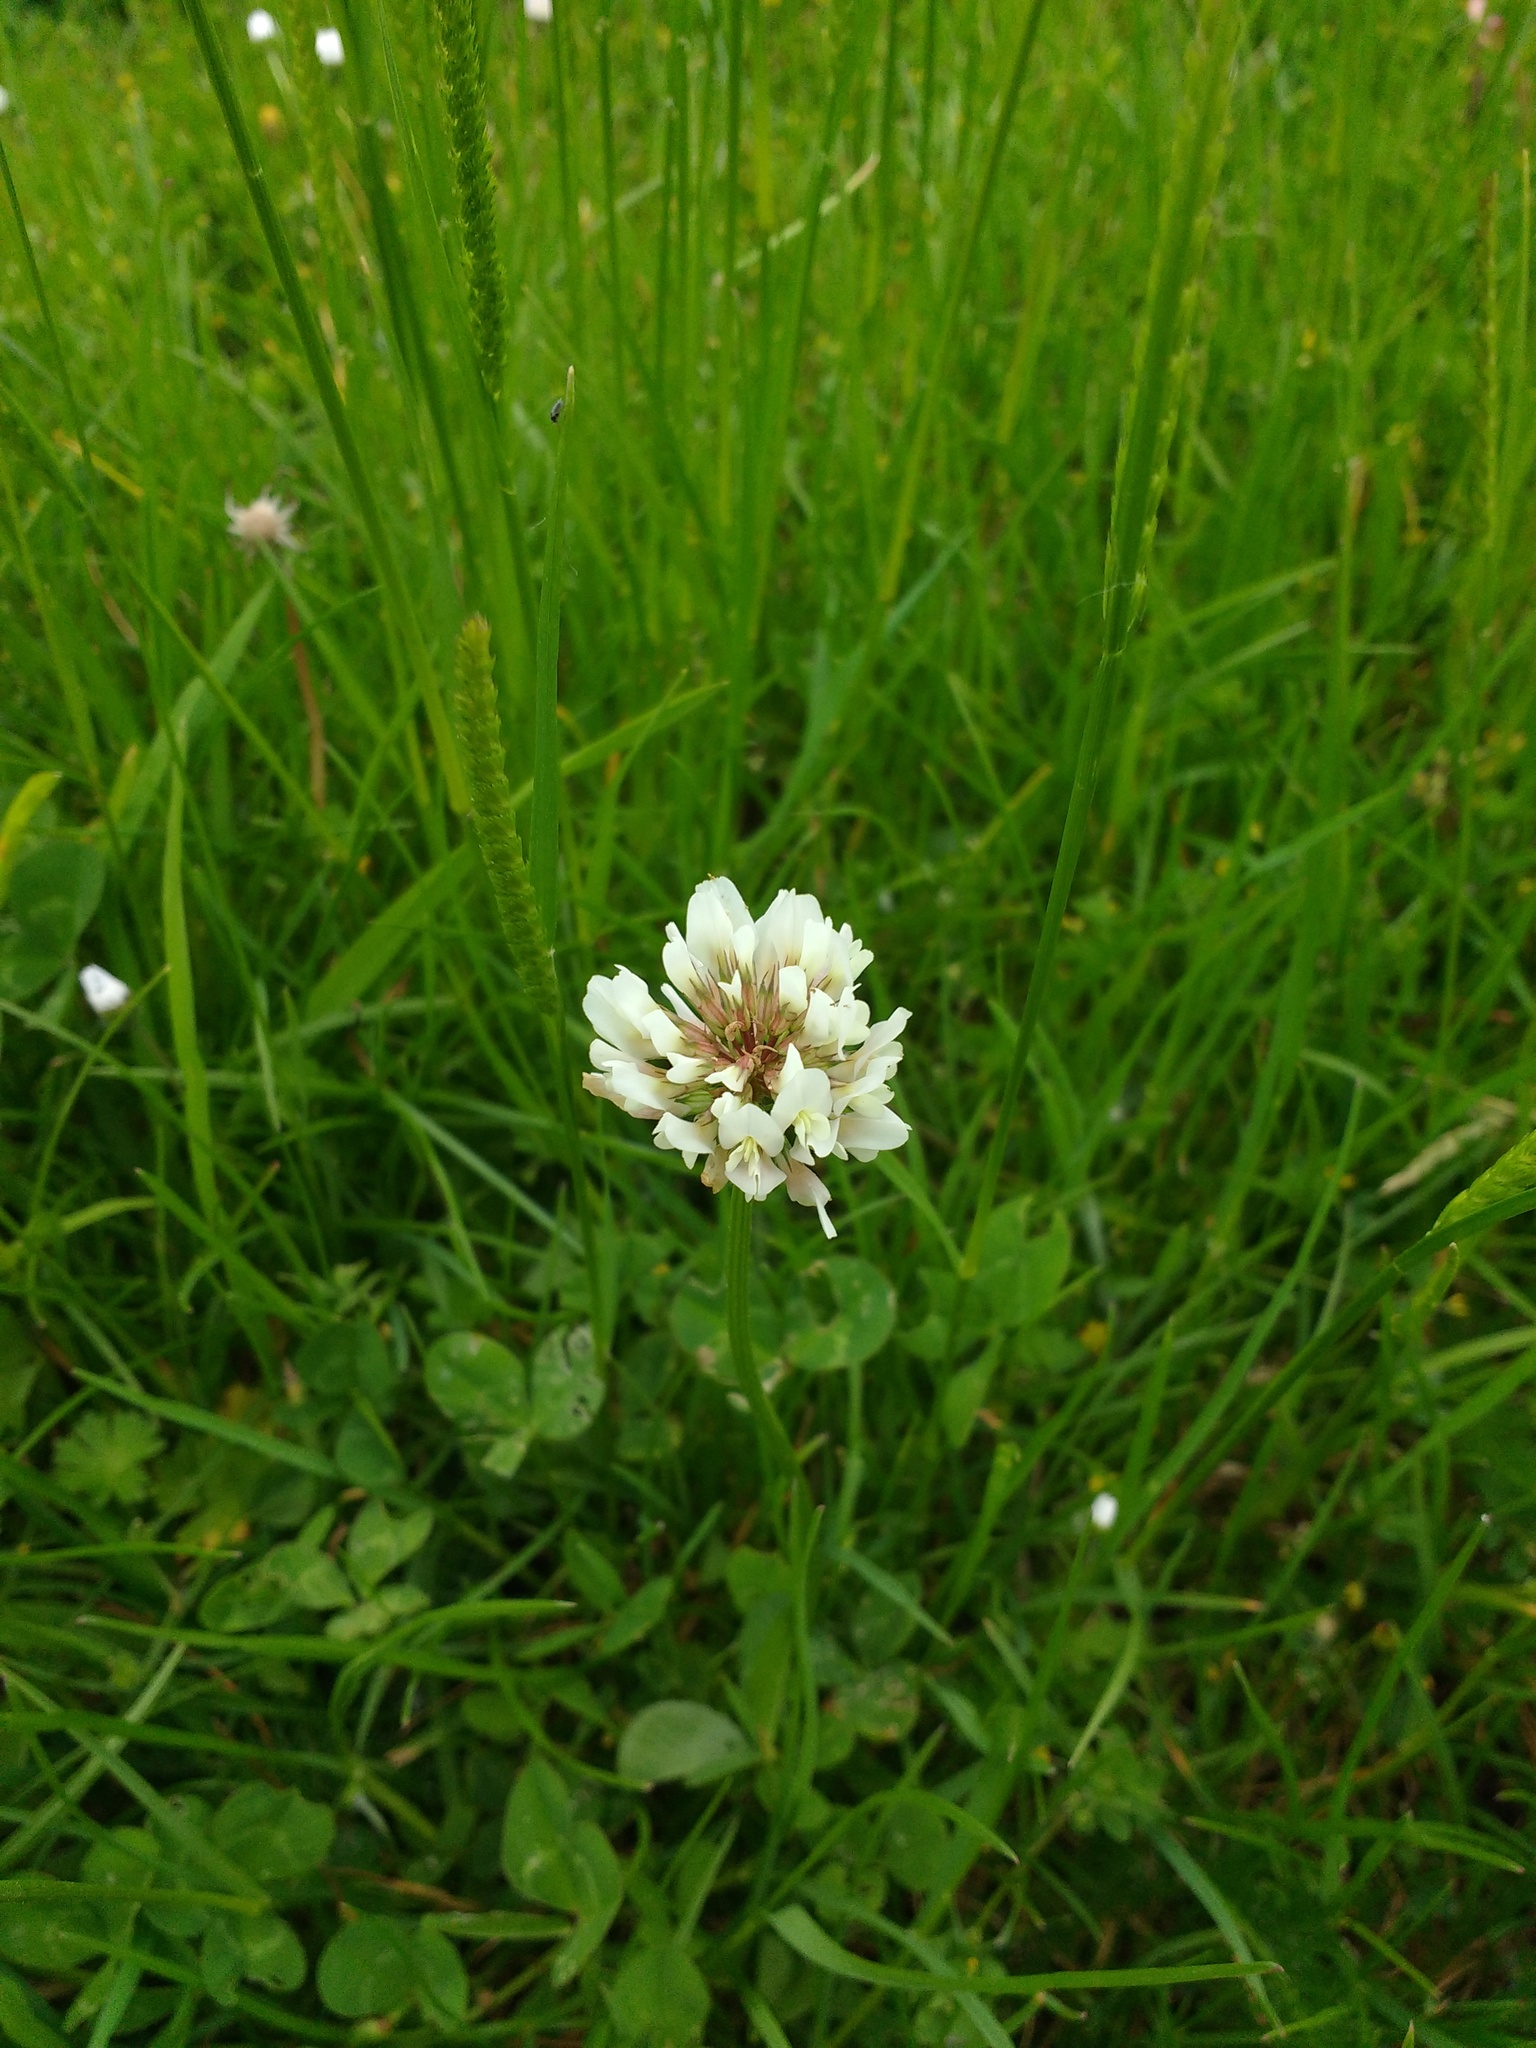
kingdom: Plantae
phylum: Tracheophyta
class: Magnoliopsida
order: Fabales
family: Fabaceae
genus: Trifolium
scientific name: Trifolium repens
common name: White clover
